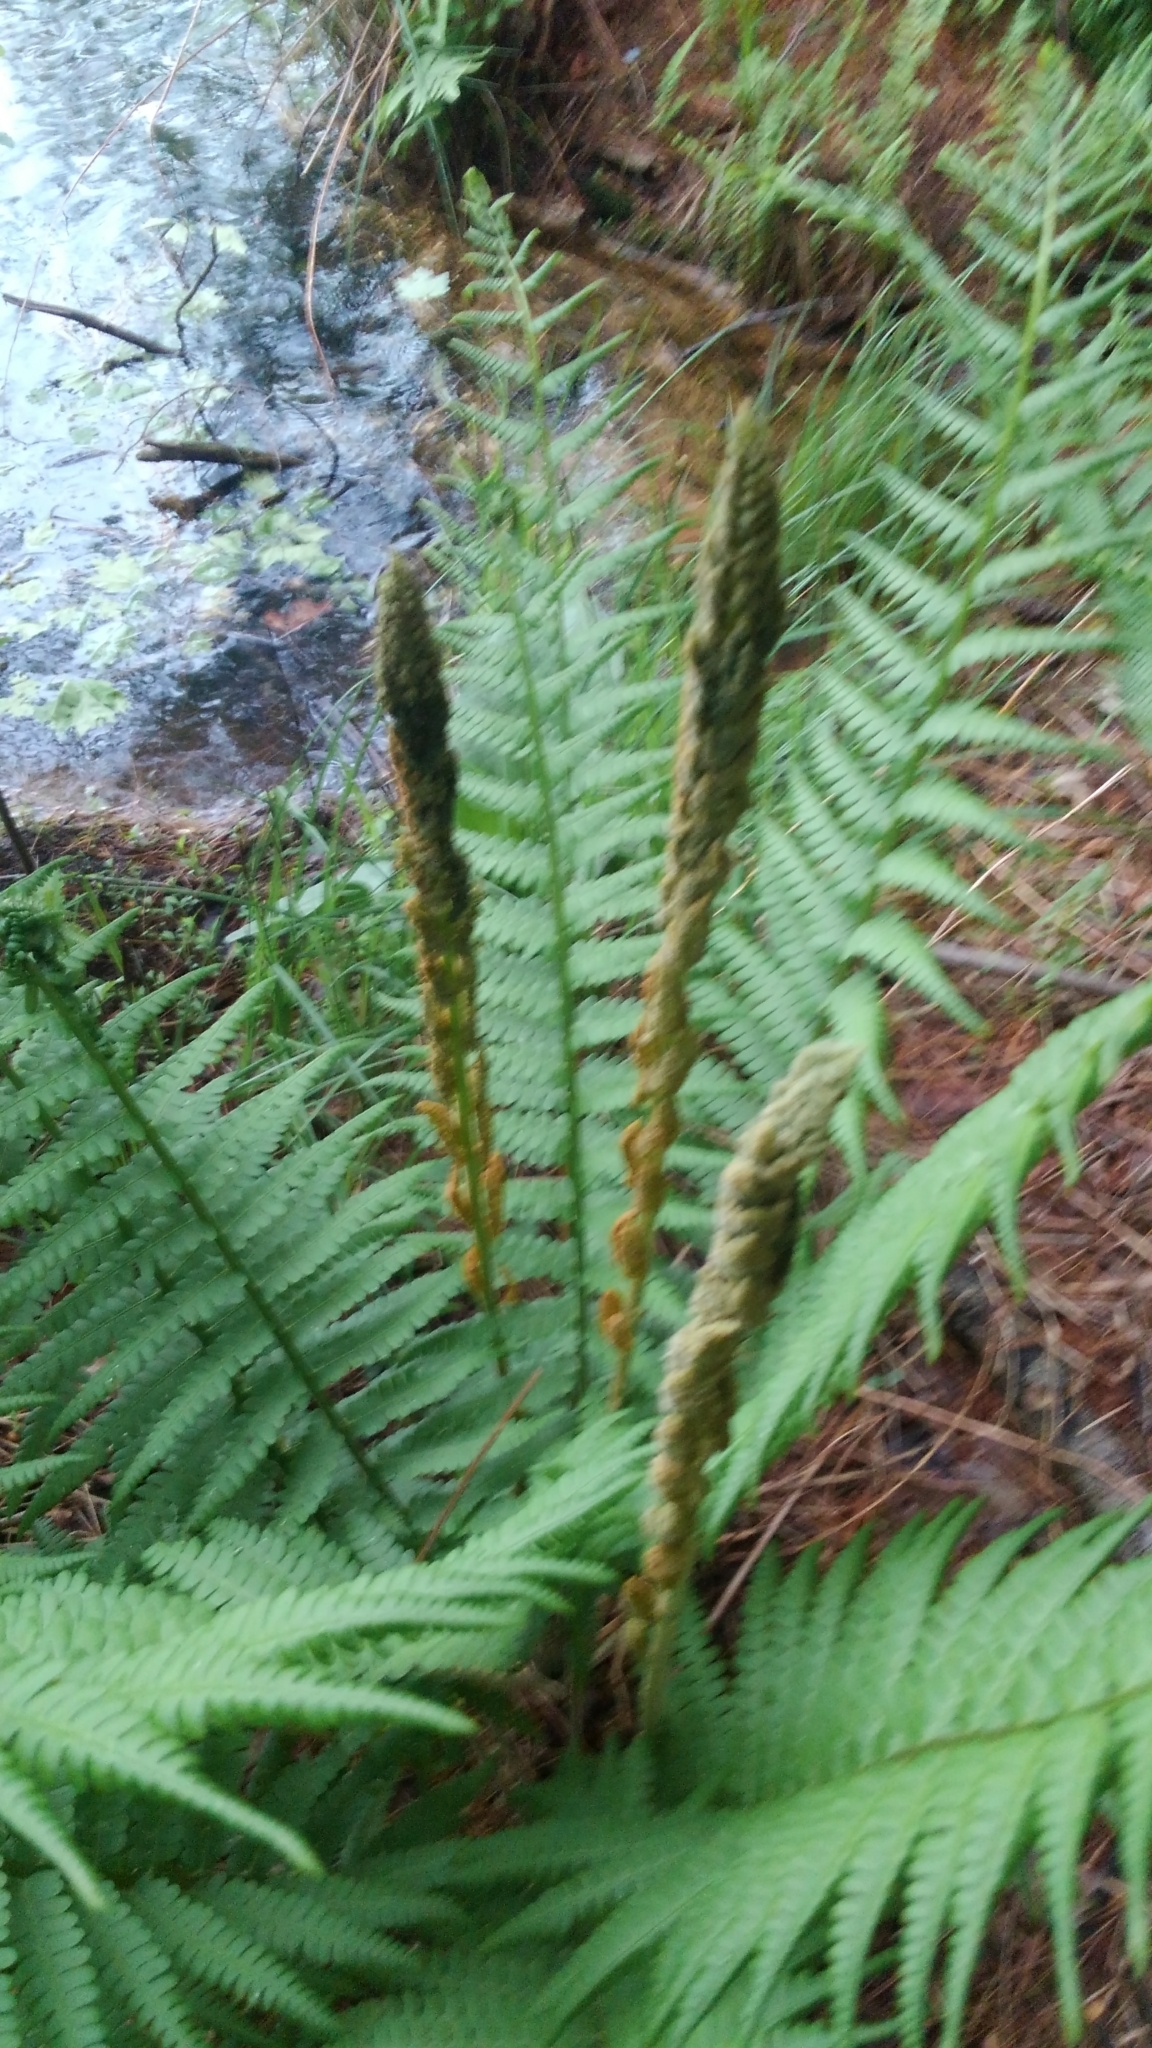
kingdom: Plantae
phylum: Tracheophyta
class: Polypodiopsida
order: Osmundales
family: Osmundaceae
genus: Osmundastrum
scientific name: Osmundastrum cinnamomeum
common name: Cinnamon fern
